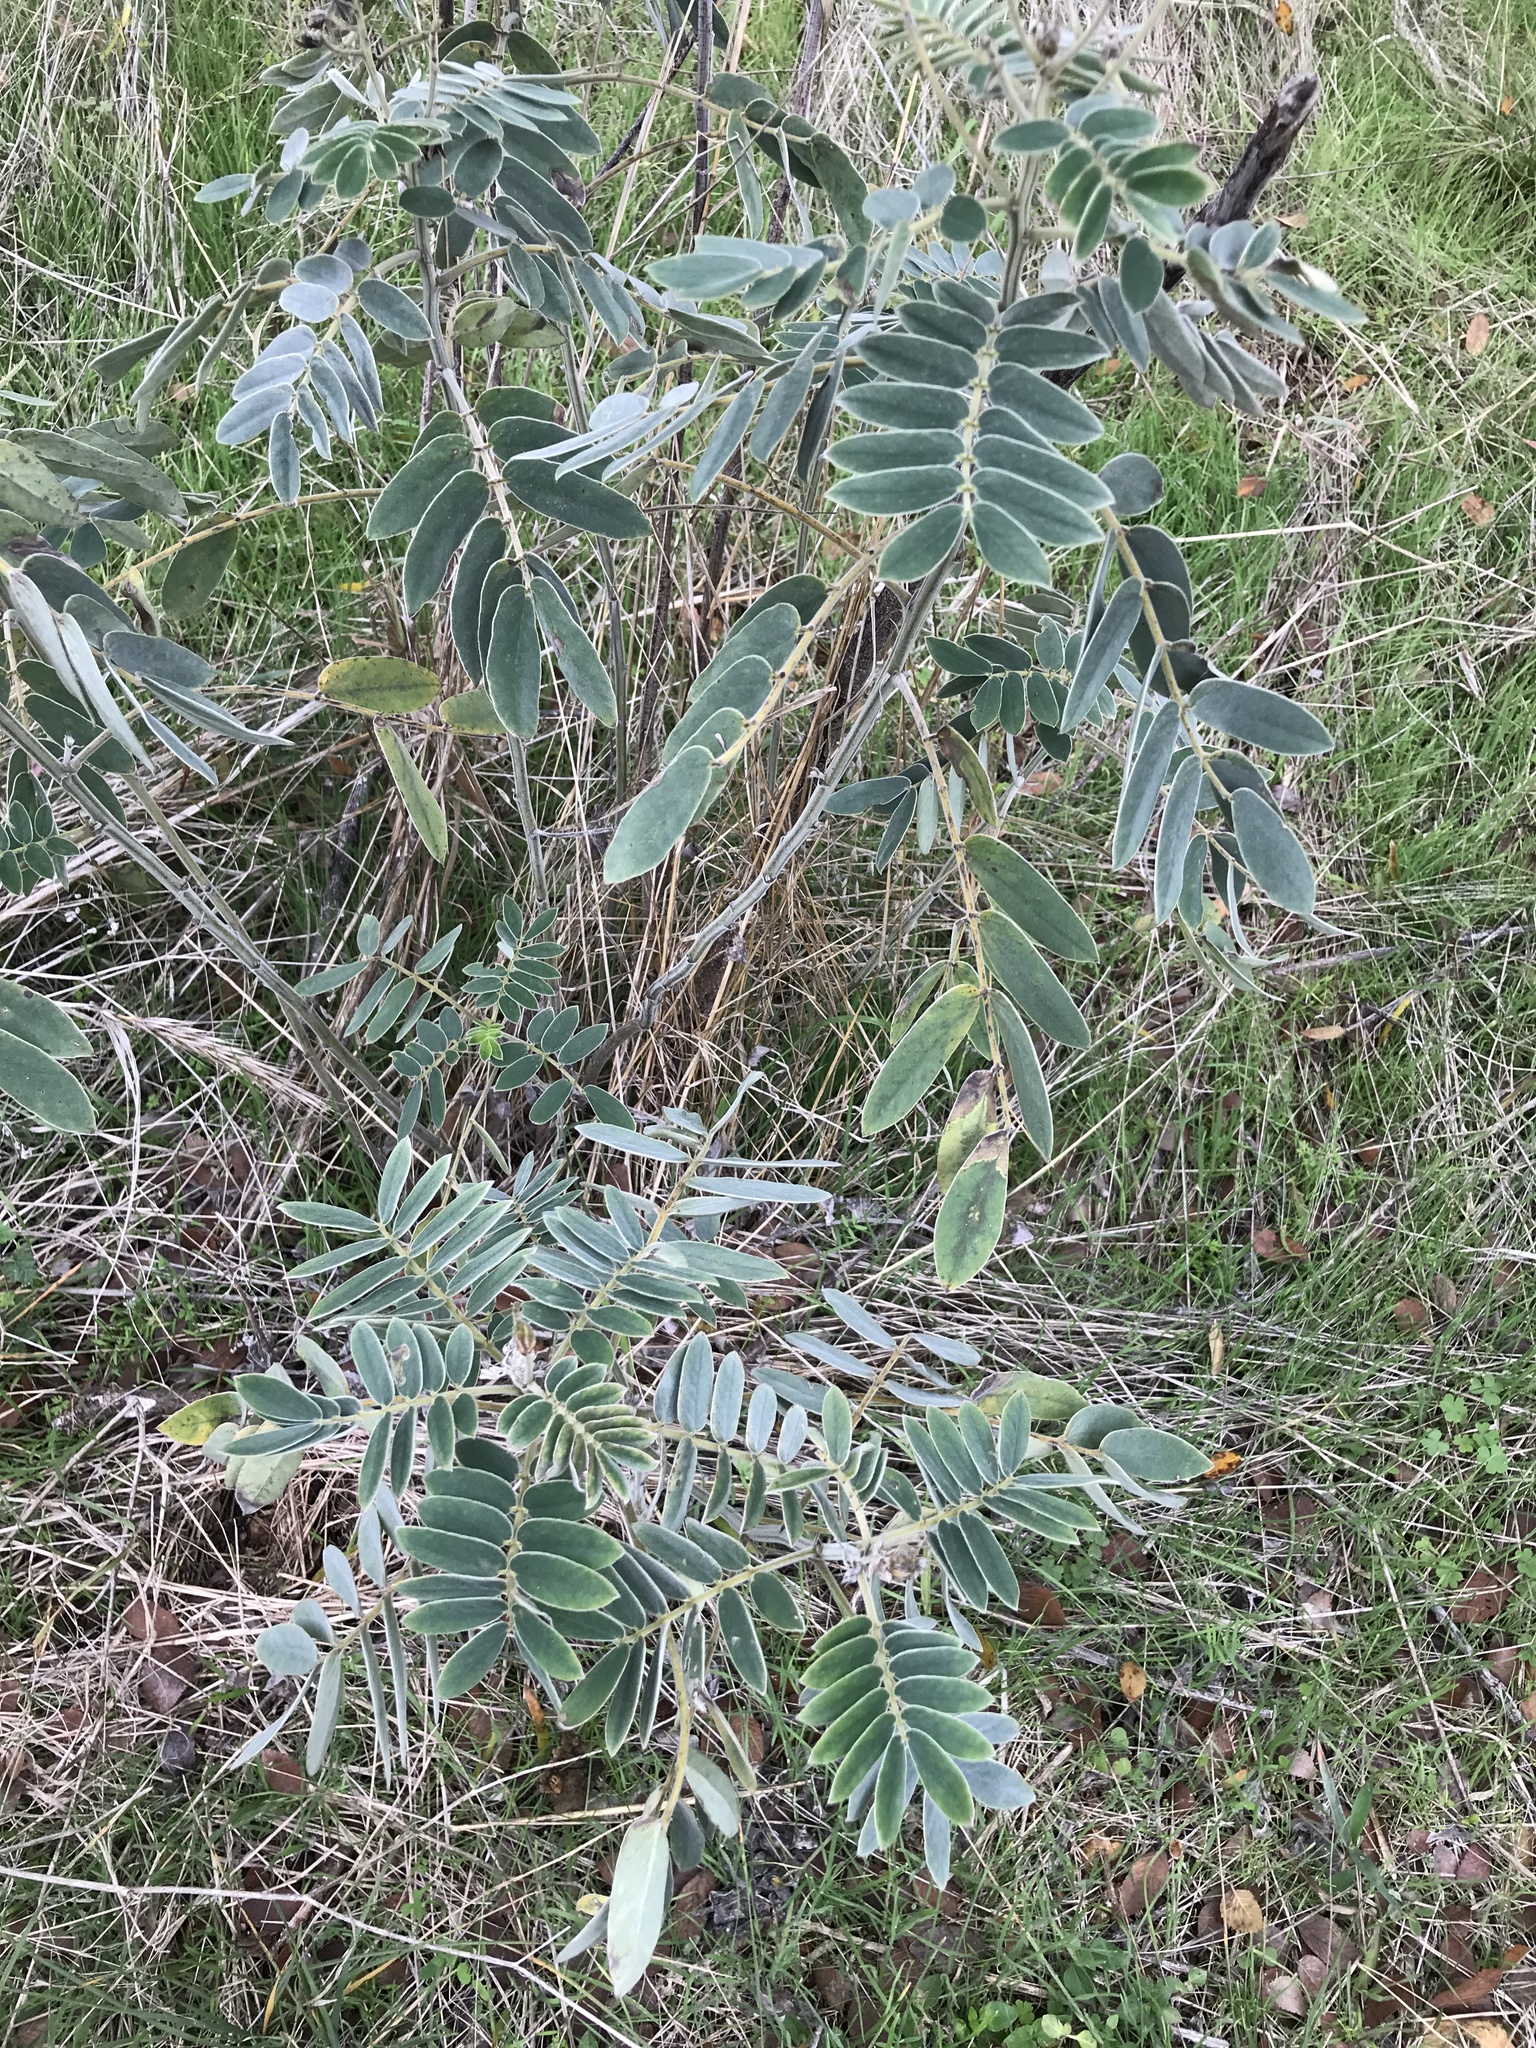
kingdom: Plantae
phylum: Tracheophyta
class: Magnoliopsida
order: Fabales
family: Fabaceae
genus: Senna
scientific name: Senna lindheimeriana
